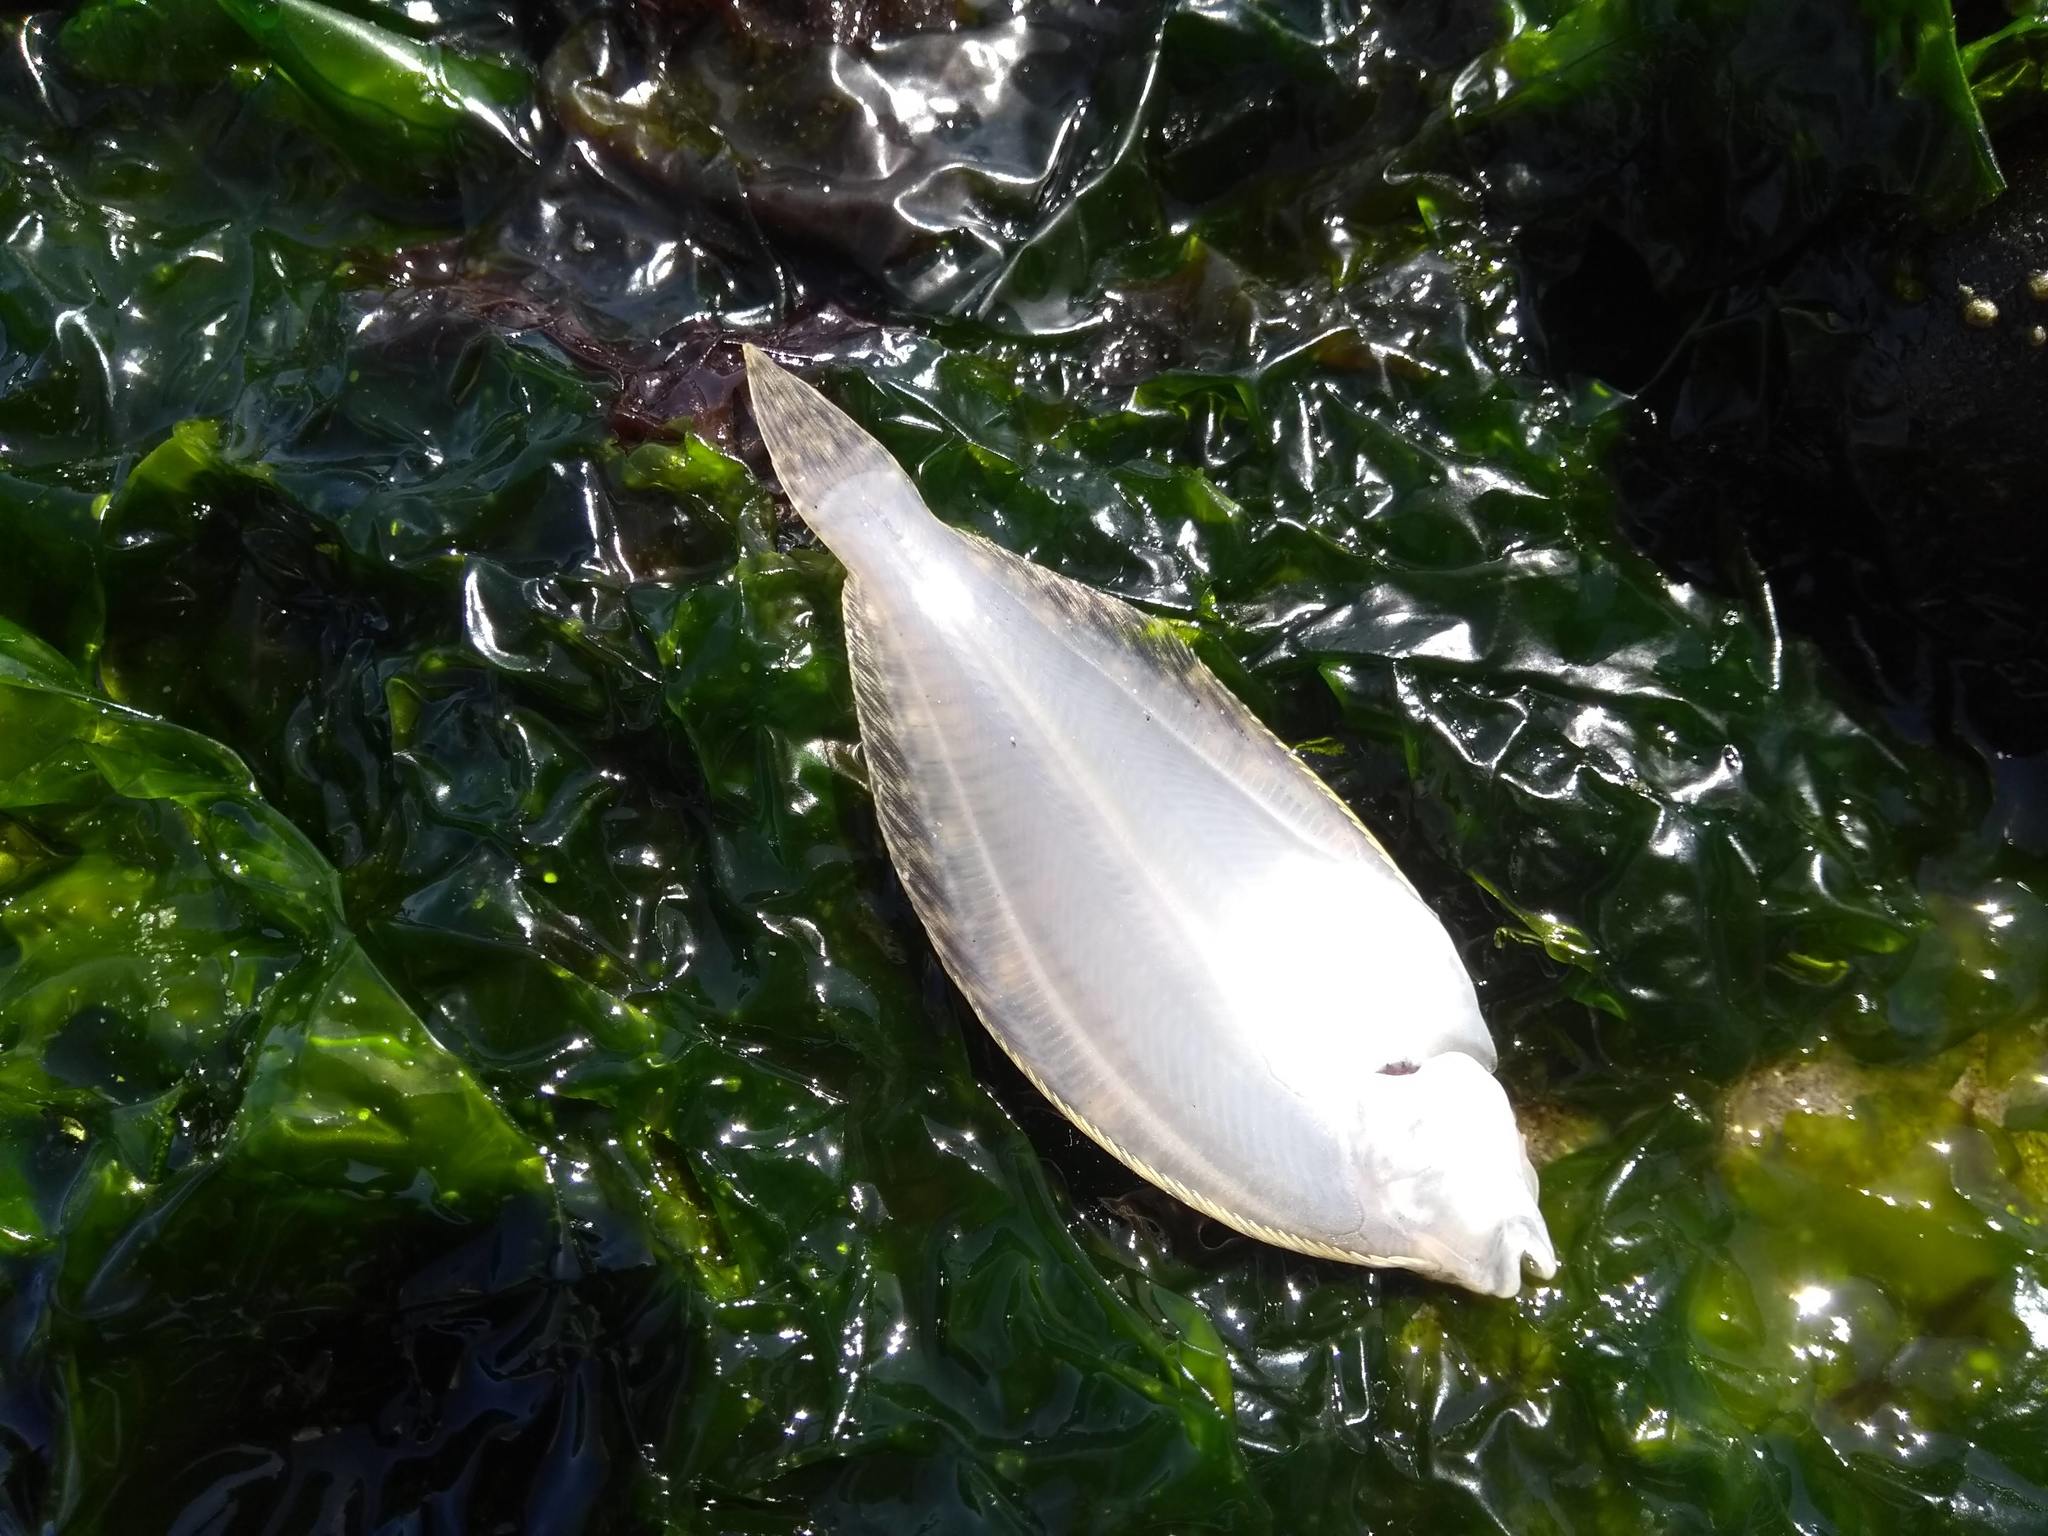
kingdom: Animalia
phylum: Chordata
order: Pleuronectiformes
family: Pleuronectidae
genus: Parophrys
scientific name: Parophrys vetulus
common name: English sole
